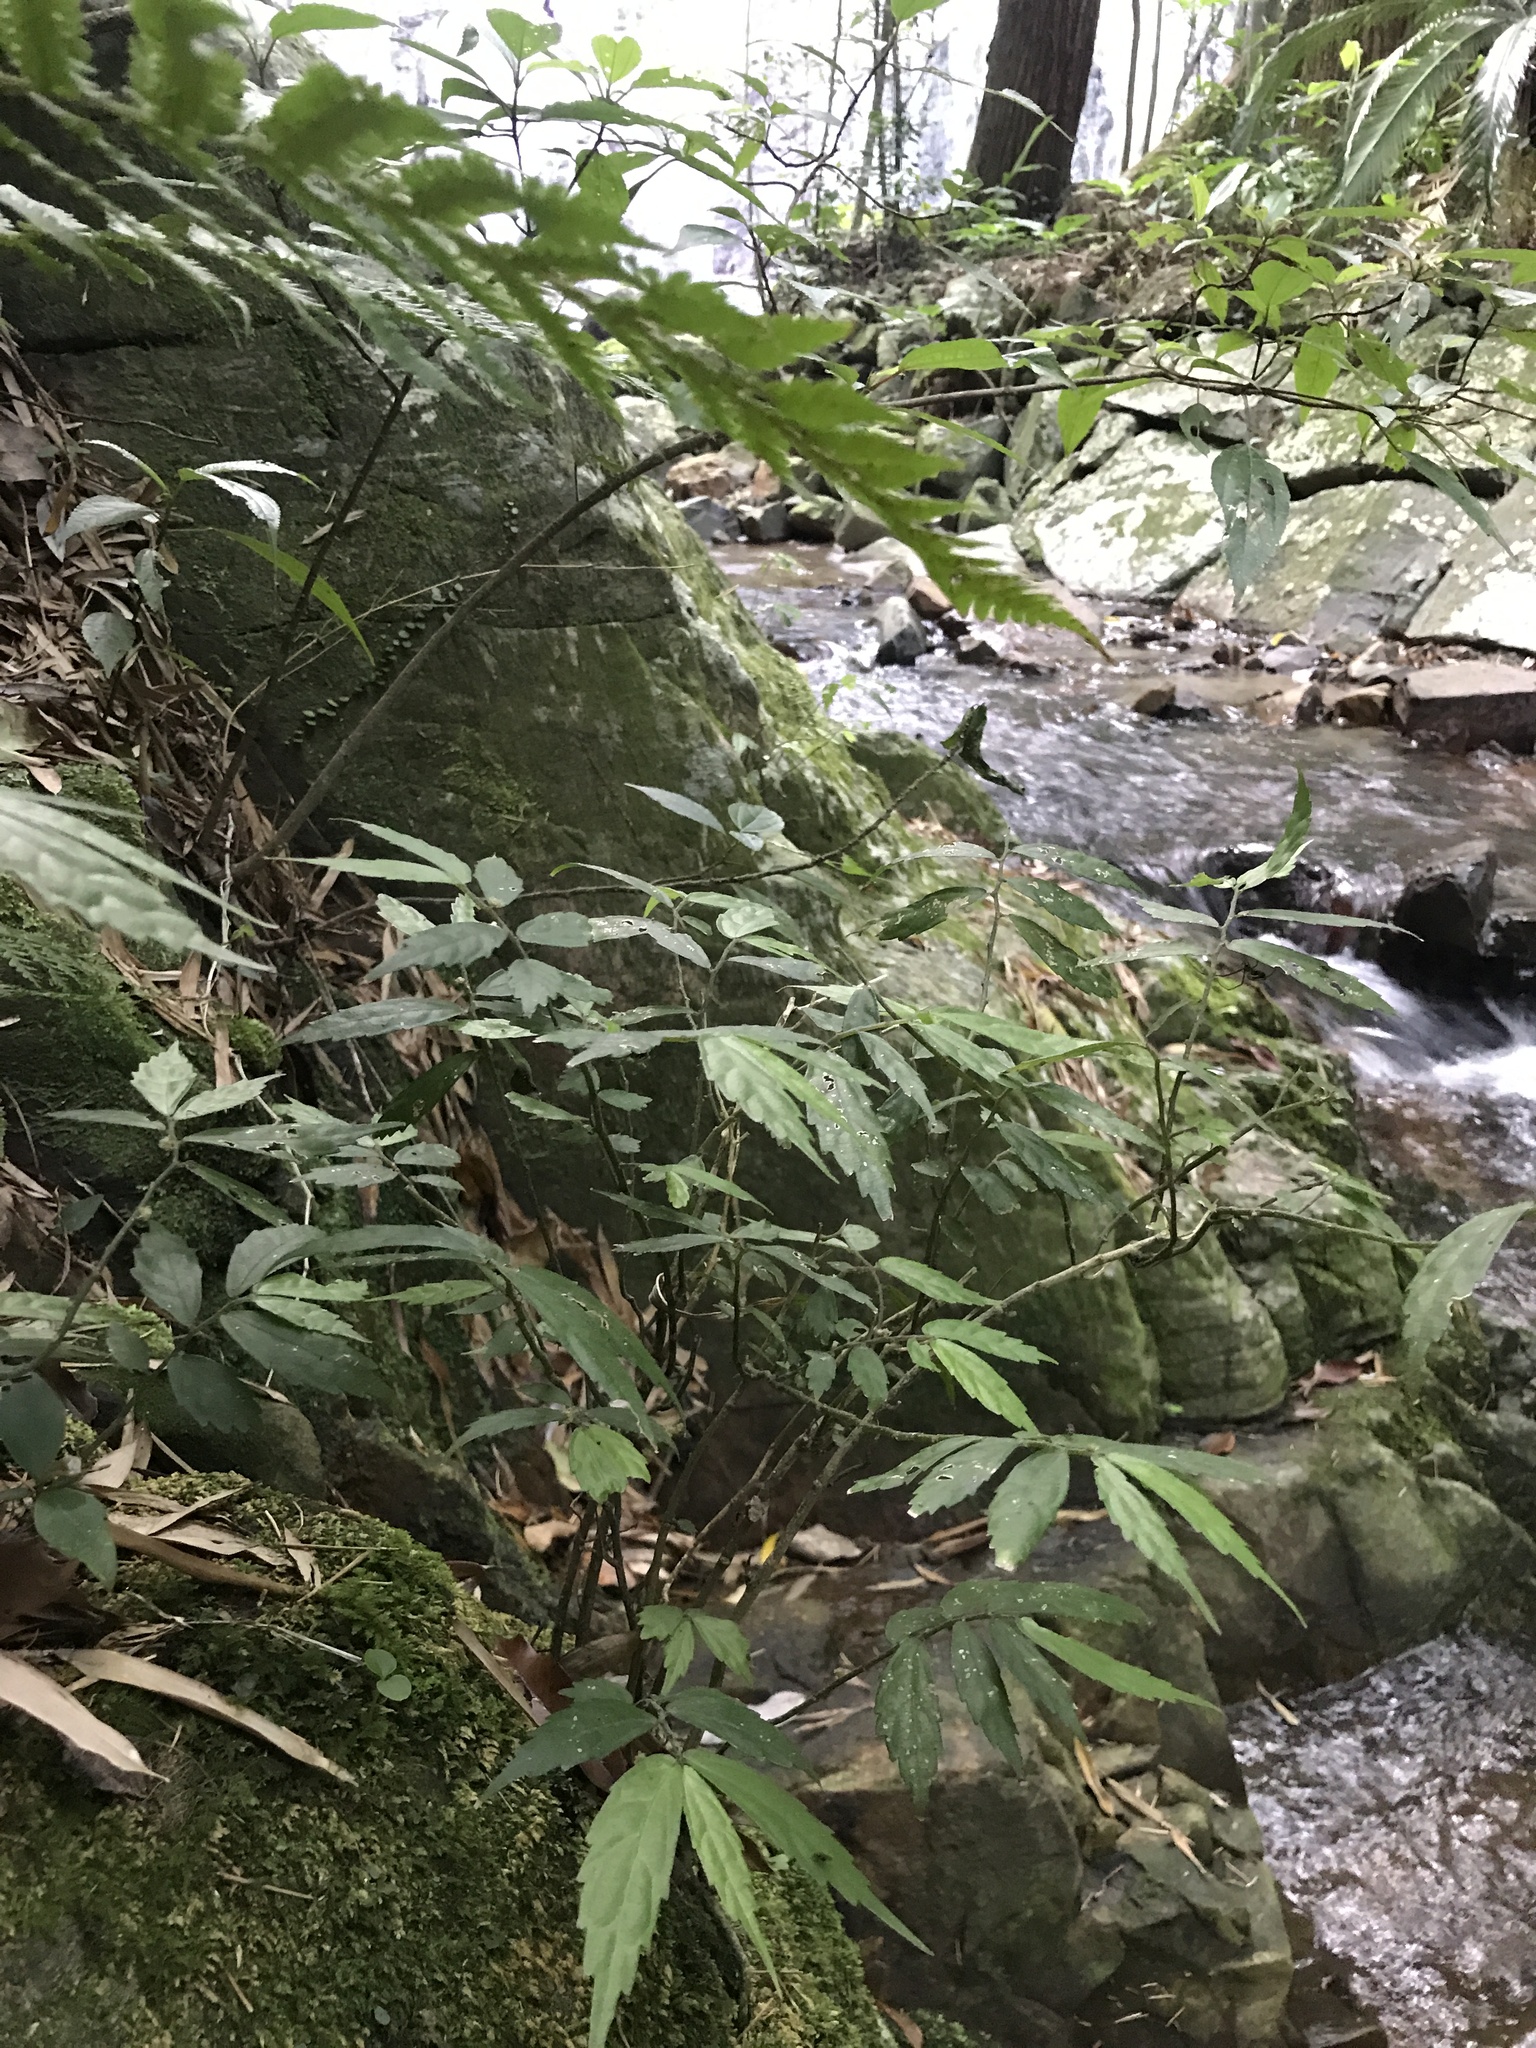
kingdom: Plantae
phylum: Tracheophyta
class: Magnoliopsida
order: Rosales
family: Urticaceae
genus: Elatostema
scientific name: Elatostema scabrum
